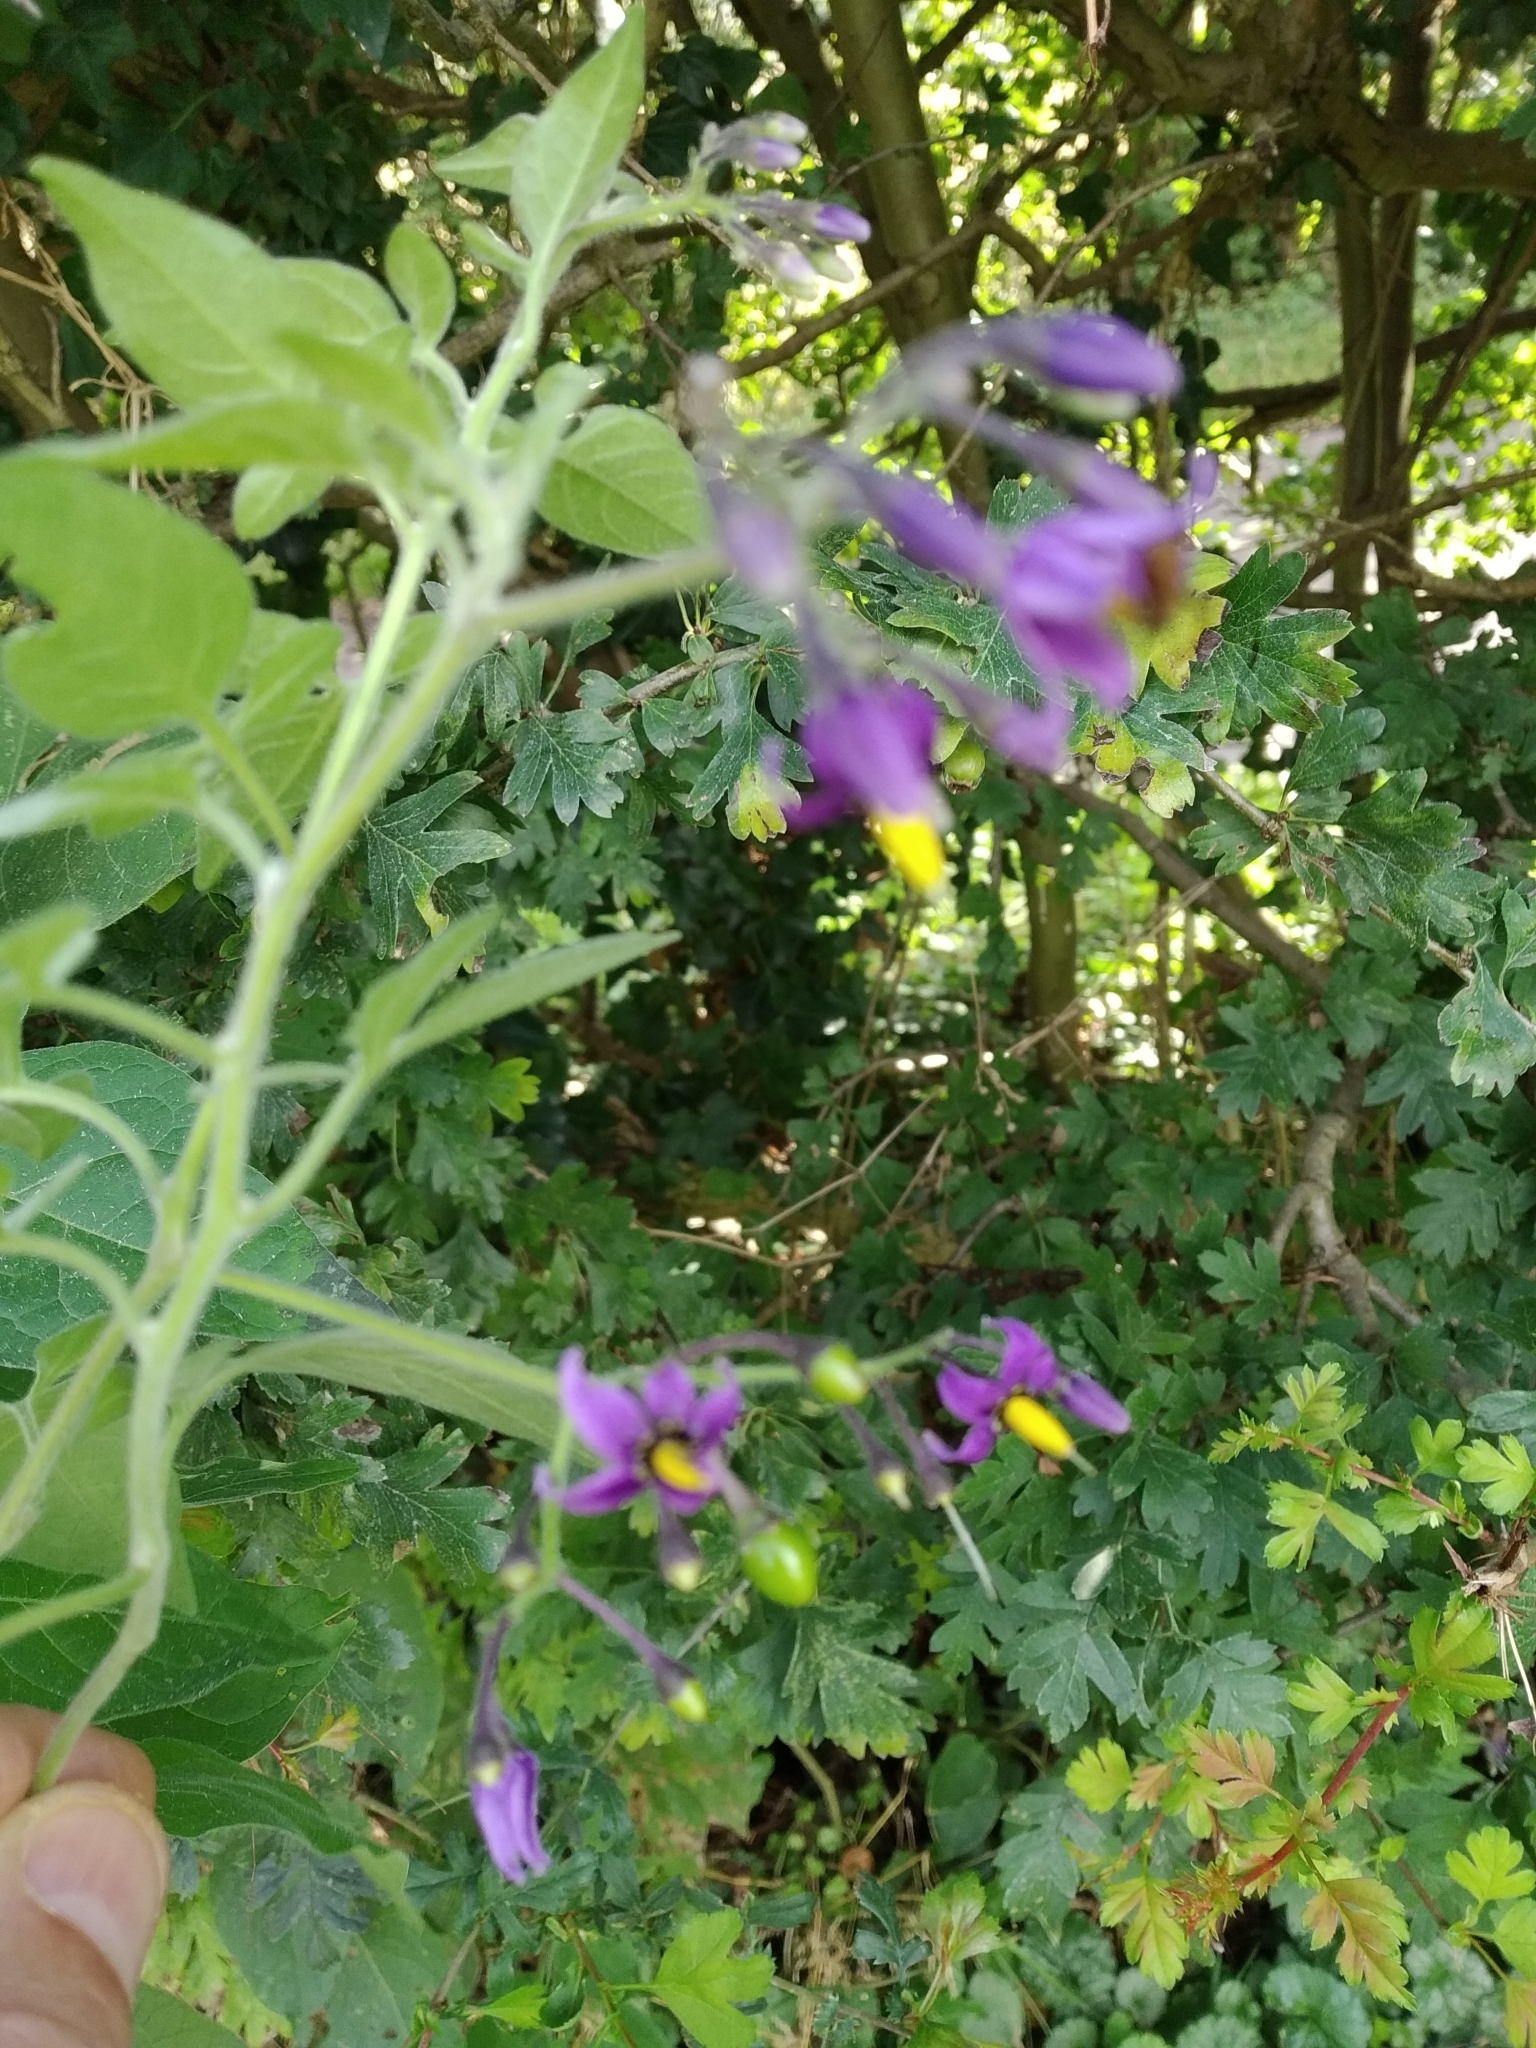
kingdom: Plantae
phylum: Tracheophyta
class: Magnoliopsida
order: Solanales
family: Solanaceae
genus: Solanum
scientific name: Solanum dulcamara
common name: Climbing nightshade
